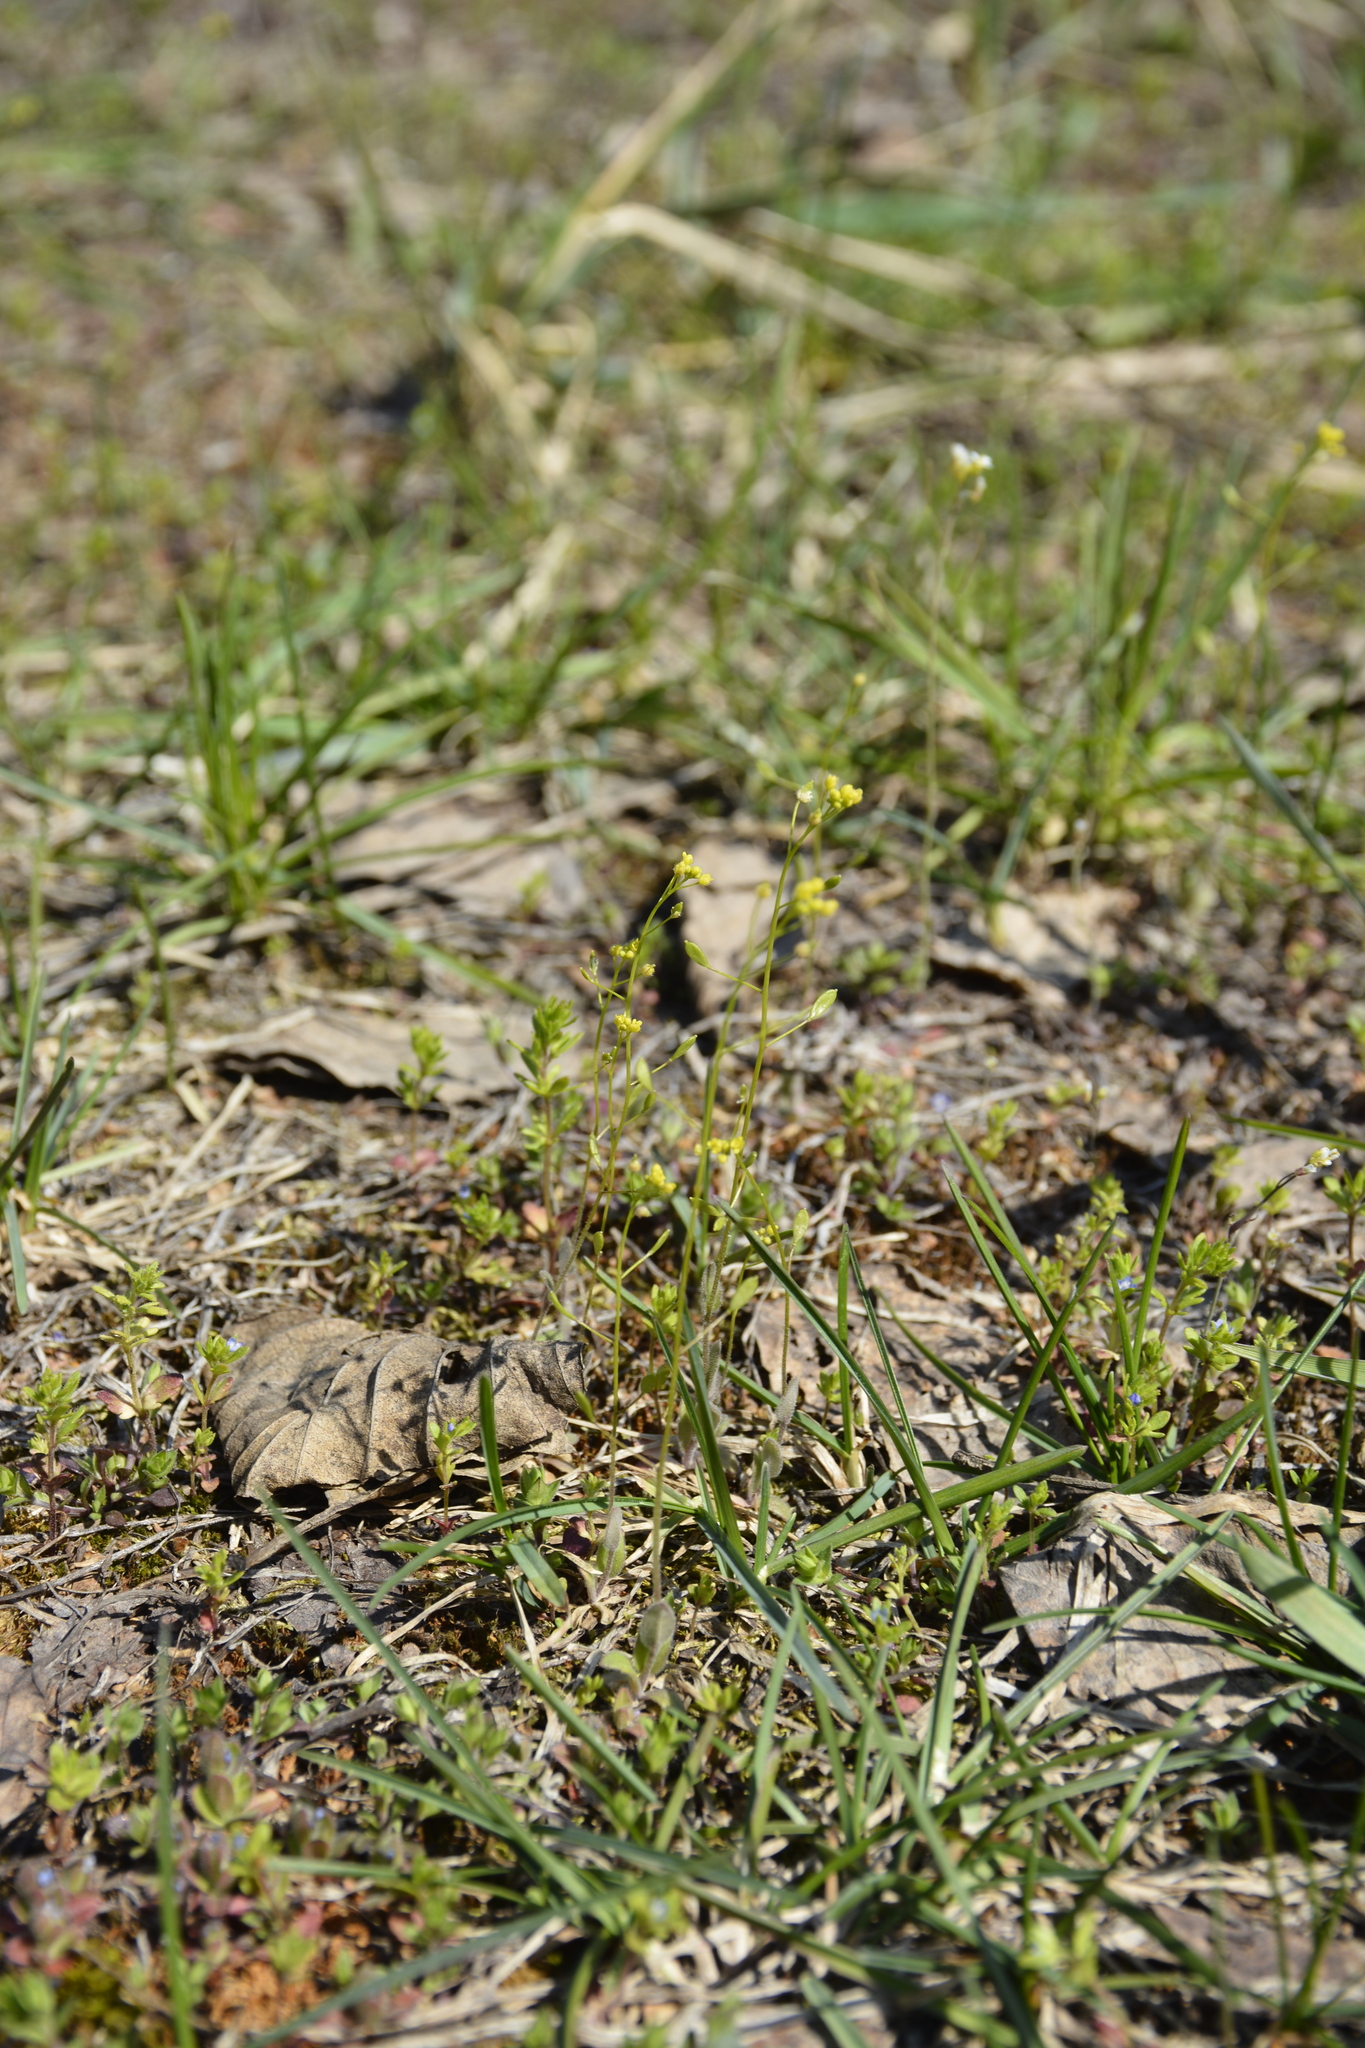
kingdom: Plantae
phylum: Tracheophyta
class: Magnoliopsida
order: Brassicales
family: Brassicaceae
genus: Draba
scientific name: Draba nemorosa
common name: Wood whitlow-grass
